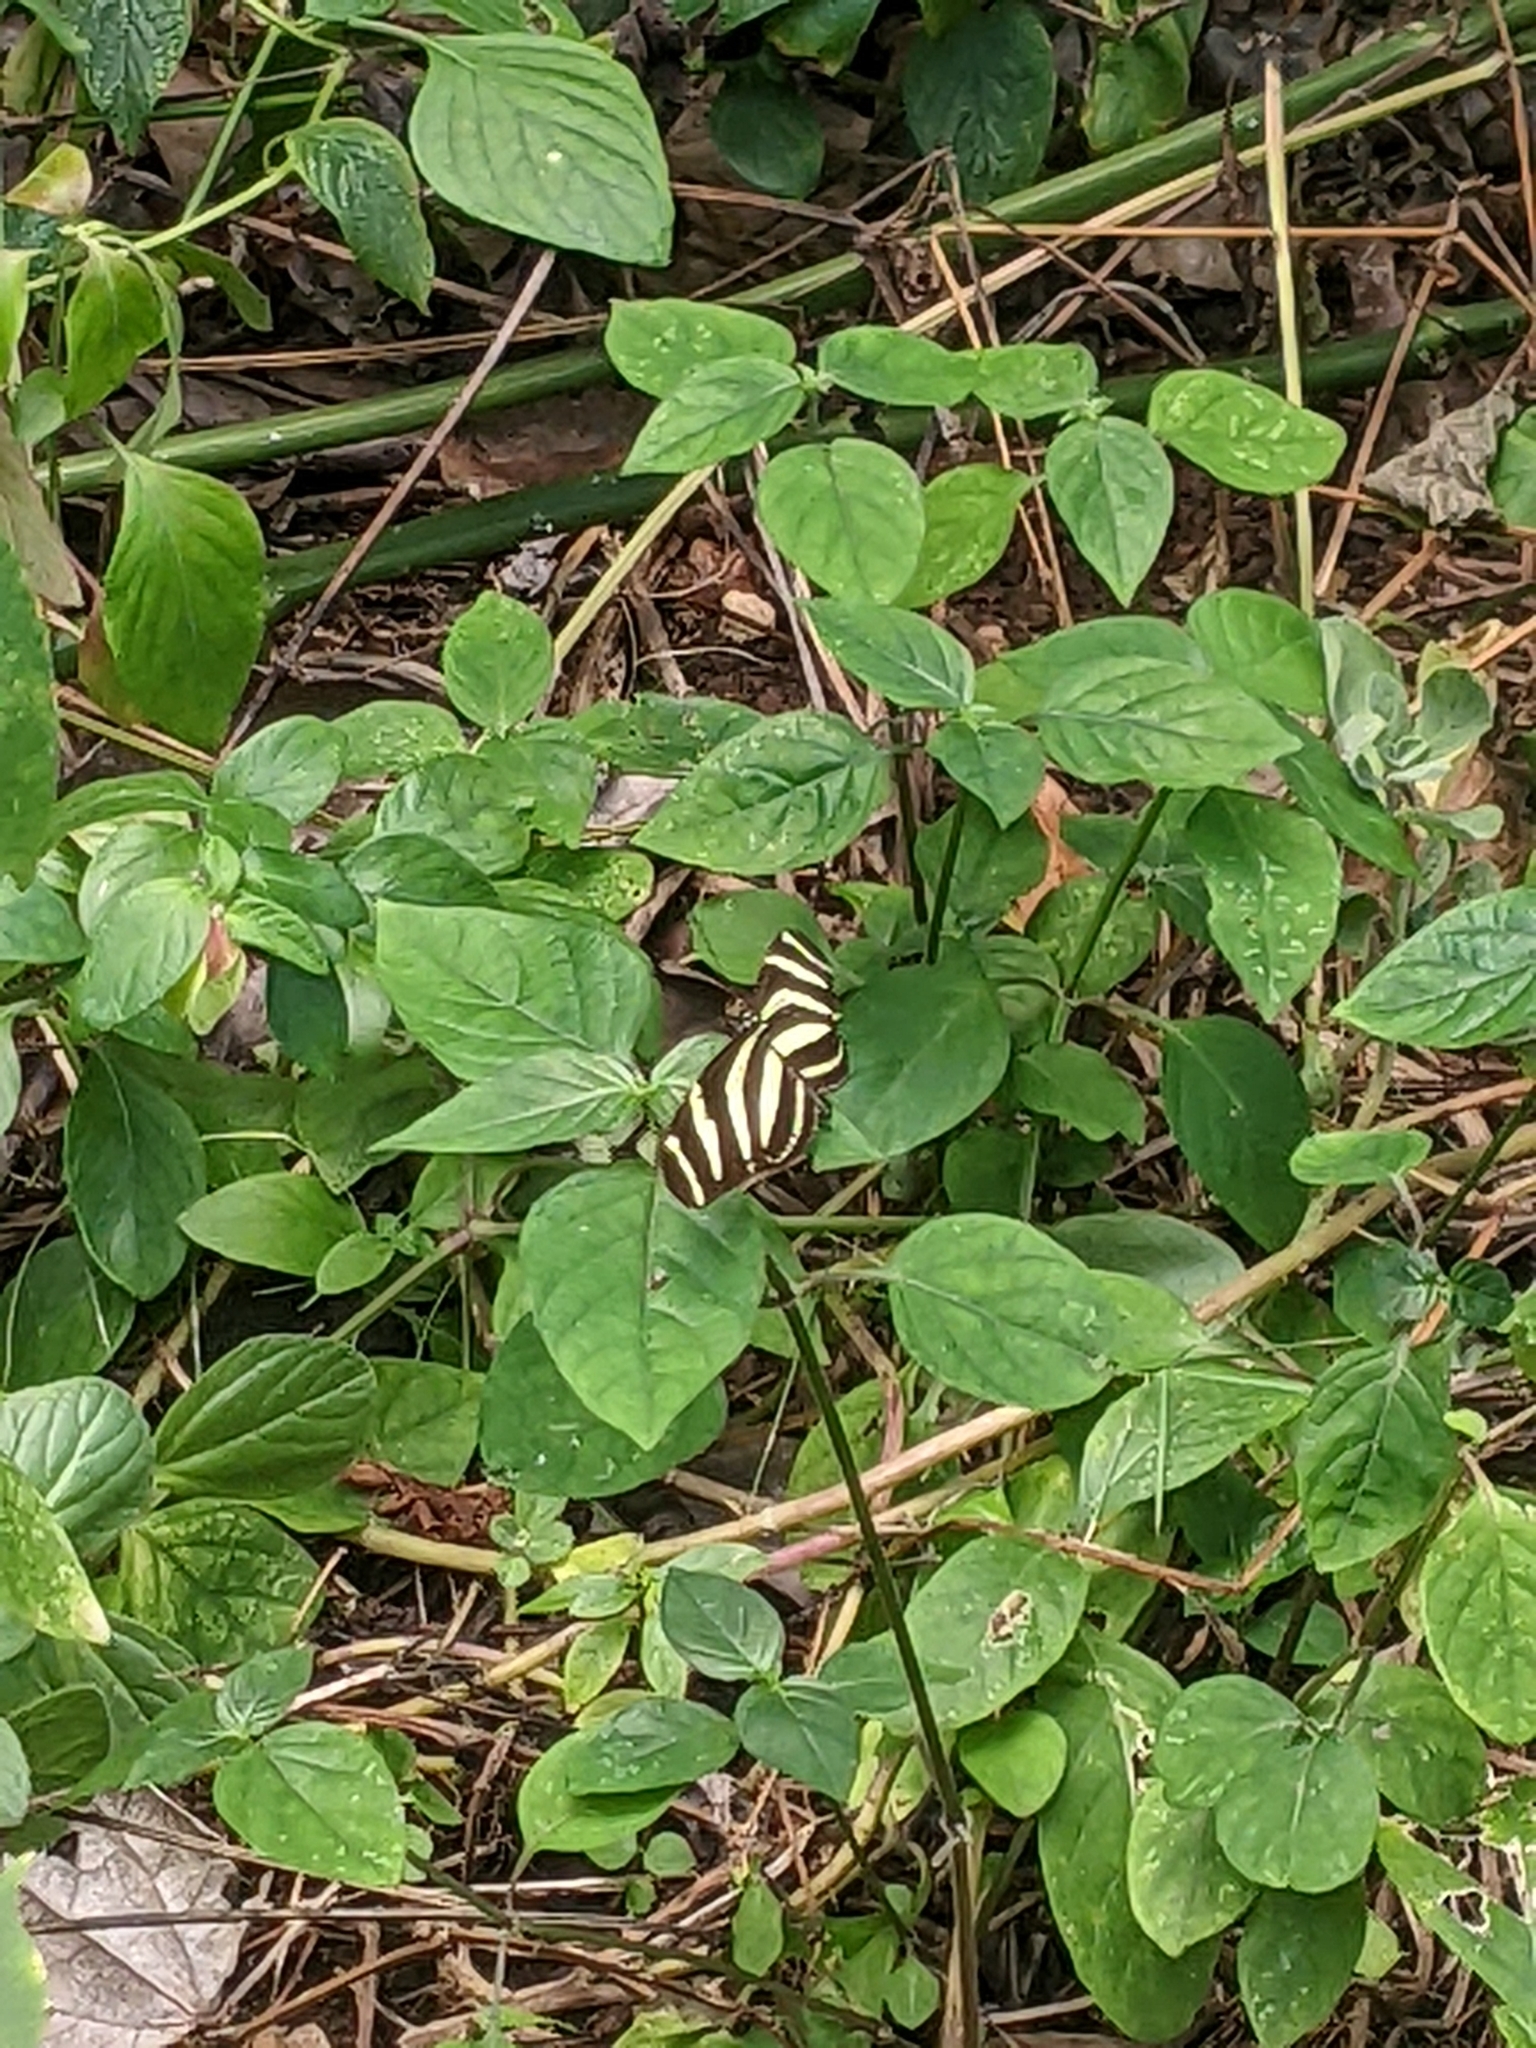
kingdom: Animalia
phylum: Arthropoda
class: Insecta
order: Lepidoptera
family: Nymphalidae
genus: Heliconius
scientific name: Heliconius charithonia
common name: Zebra long wing
